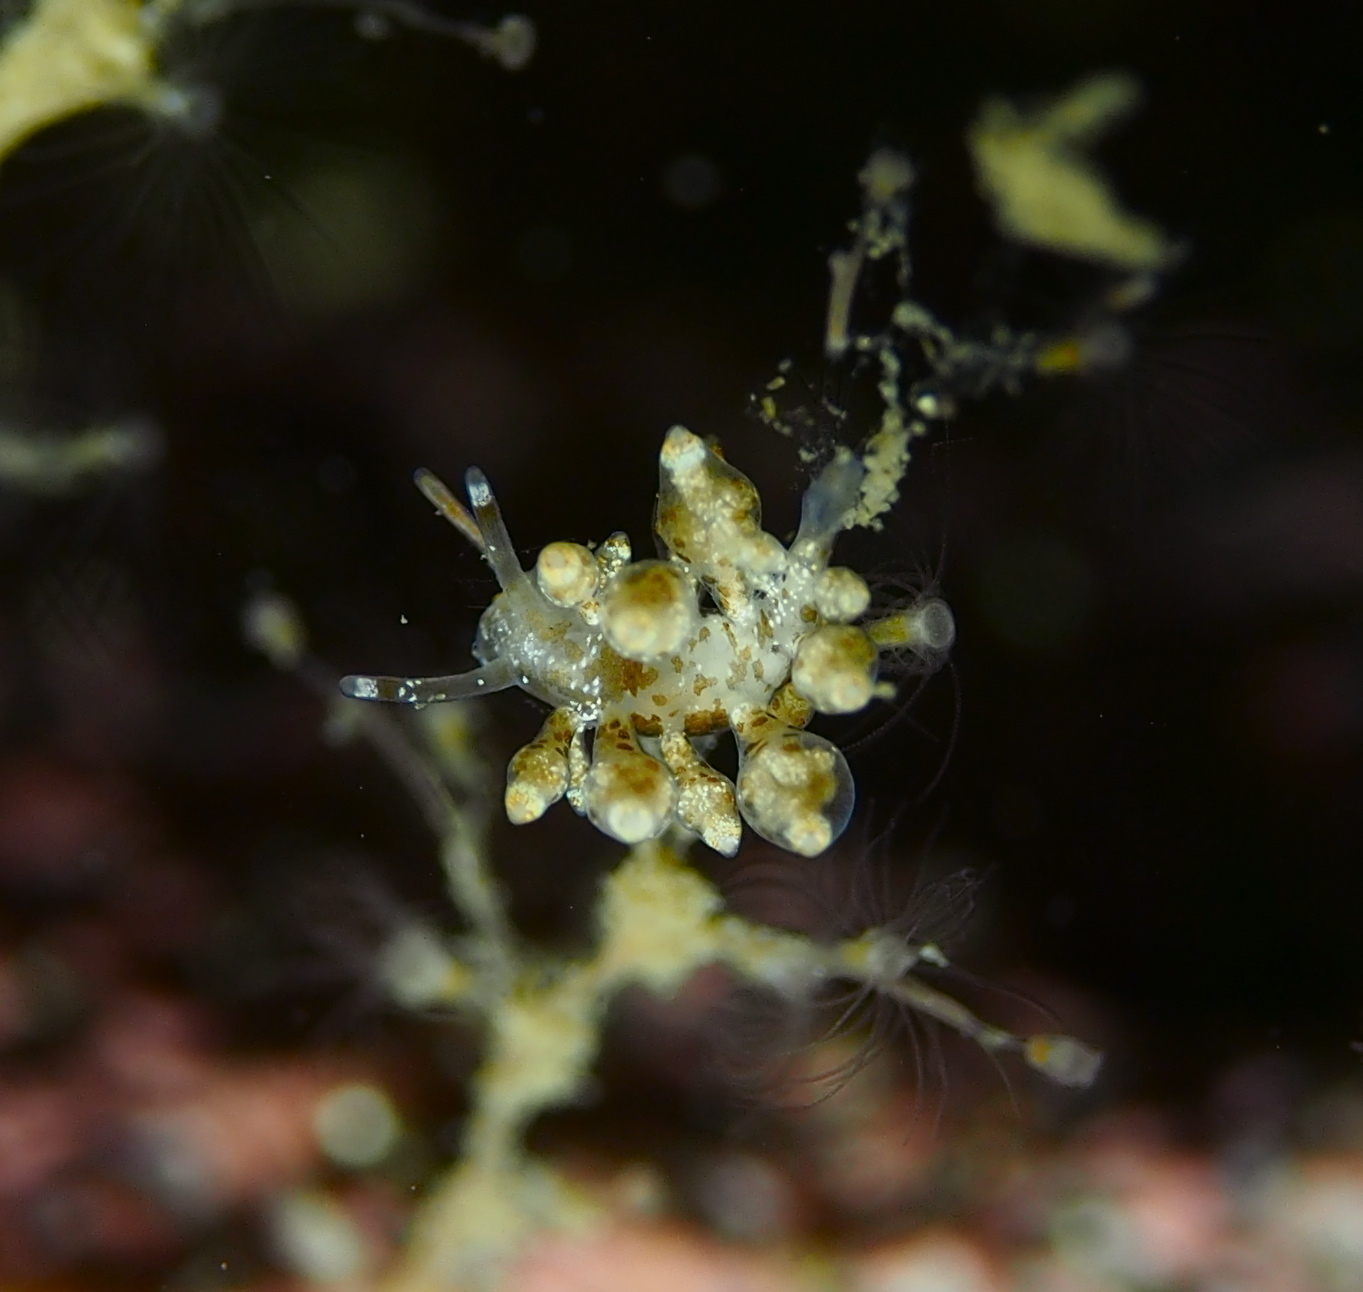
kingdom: Animalia
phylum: Mollusca
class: Gastropoda
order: Nudibranchia
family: Eubranchidae
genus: Eubranchus
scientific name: Eubranchus exiguus
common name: Balloon aeolis
